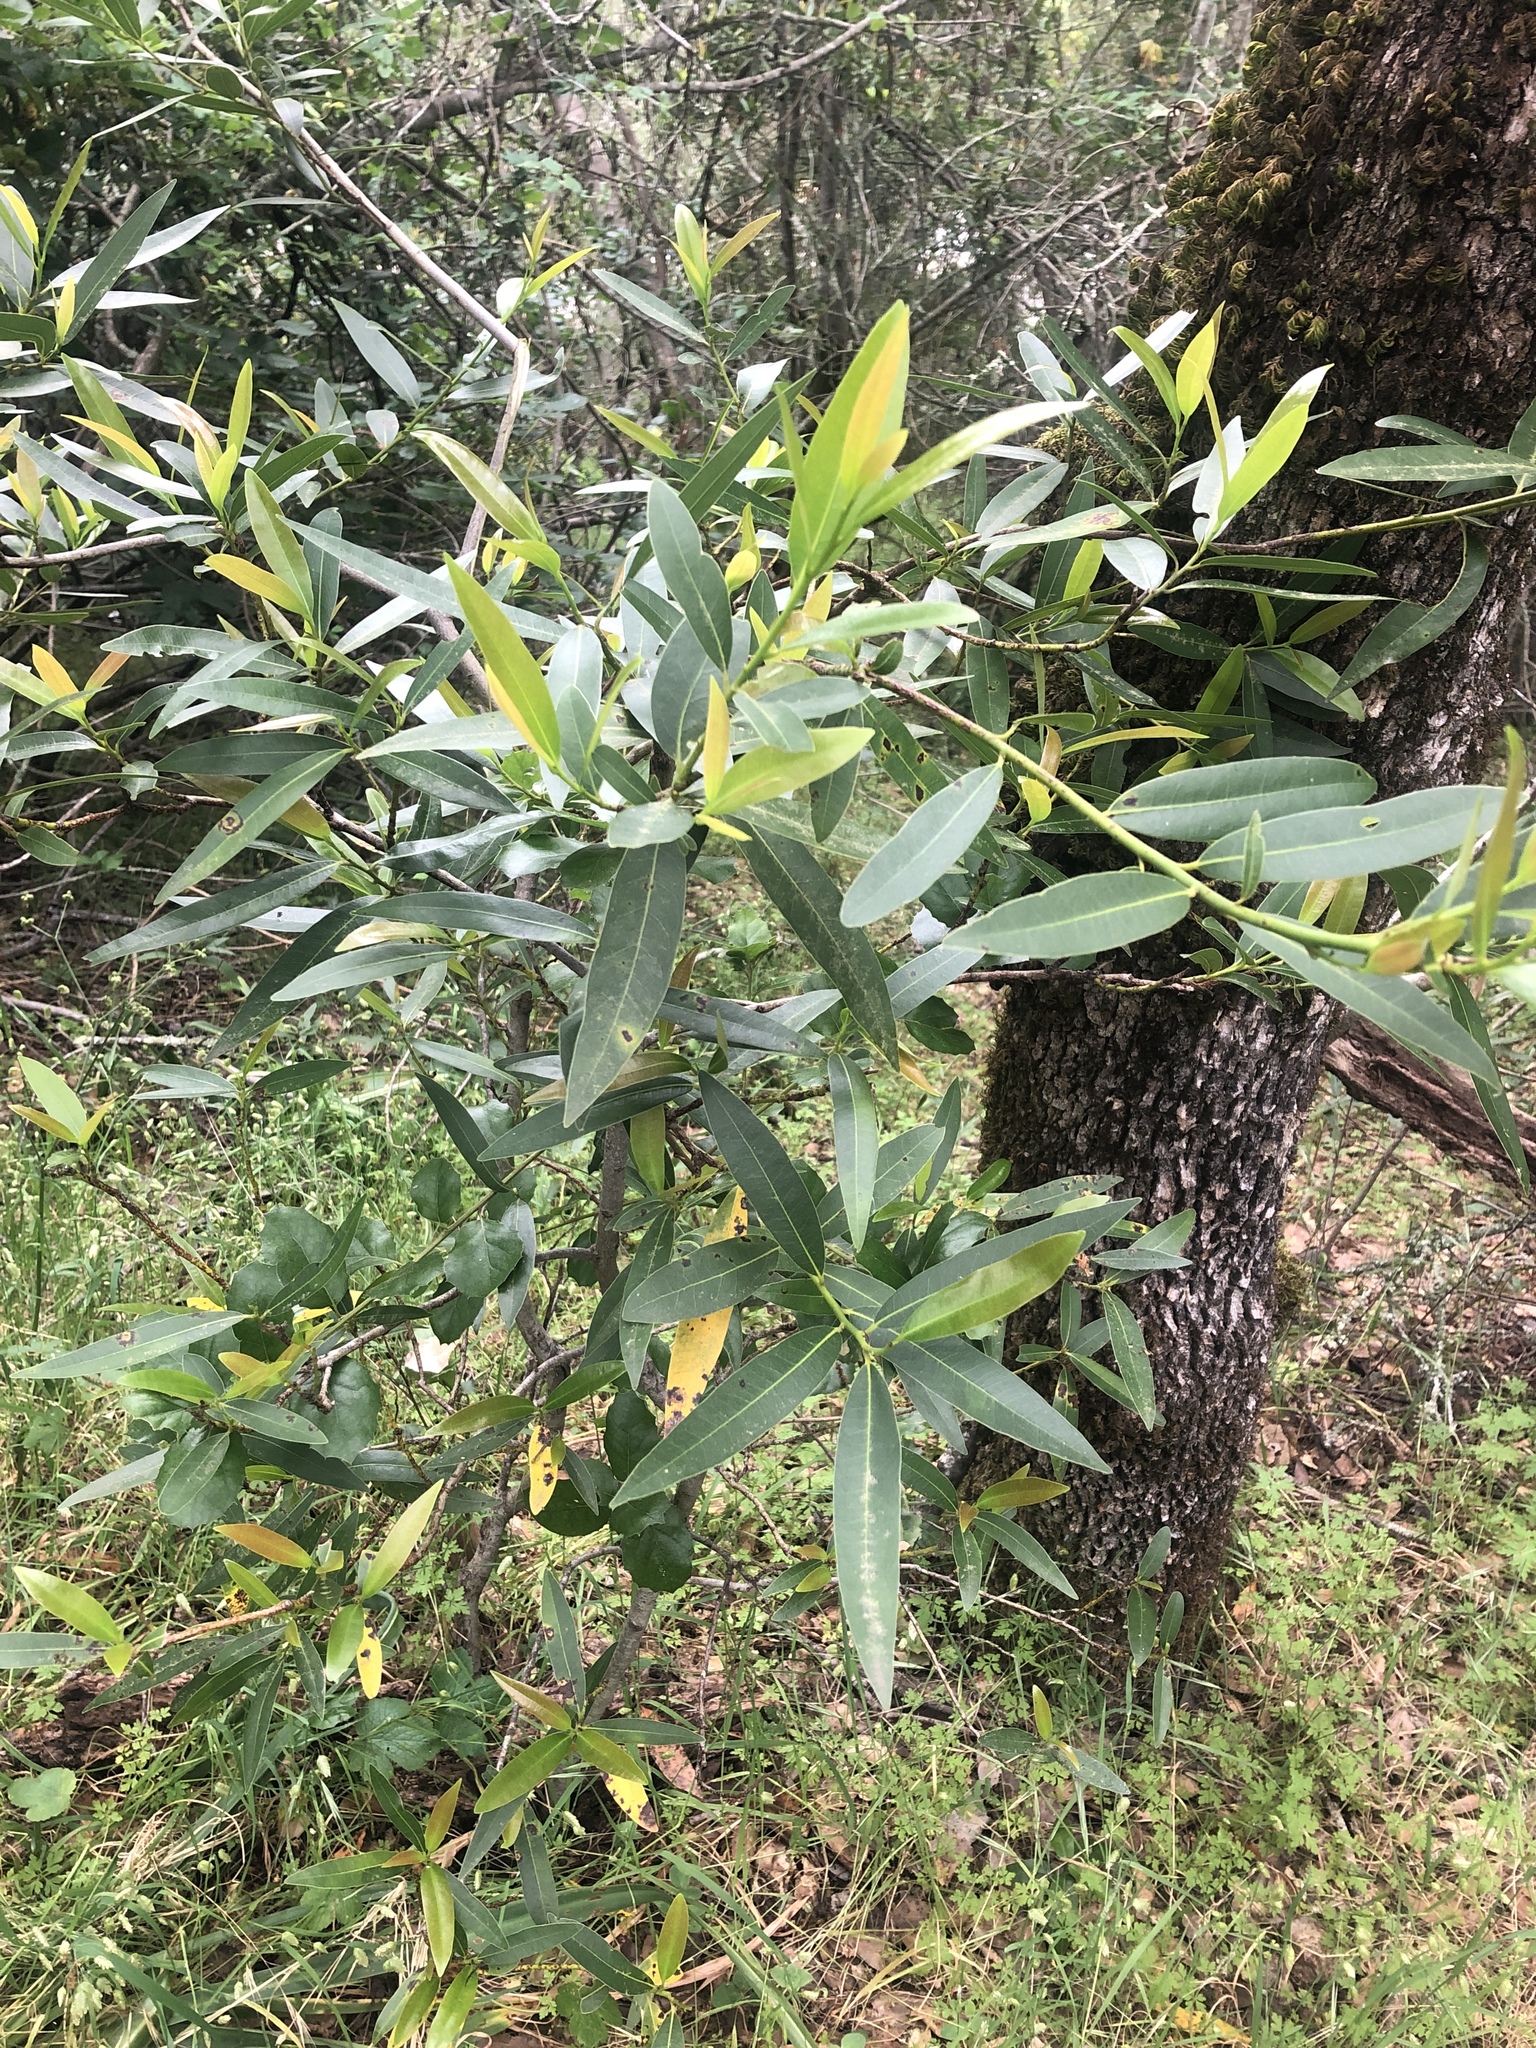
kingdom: Plantae
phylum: Tracheophyta
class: Magnoliopsida
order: Laurales
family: Lauraceae
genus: Umbellularia
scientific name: Umbellularia californica
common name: California bay
